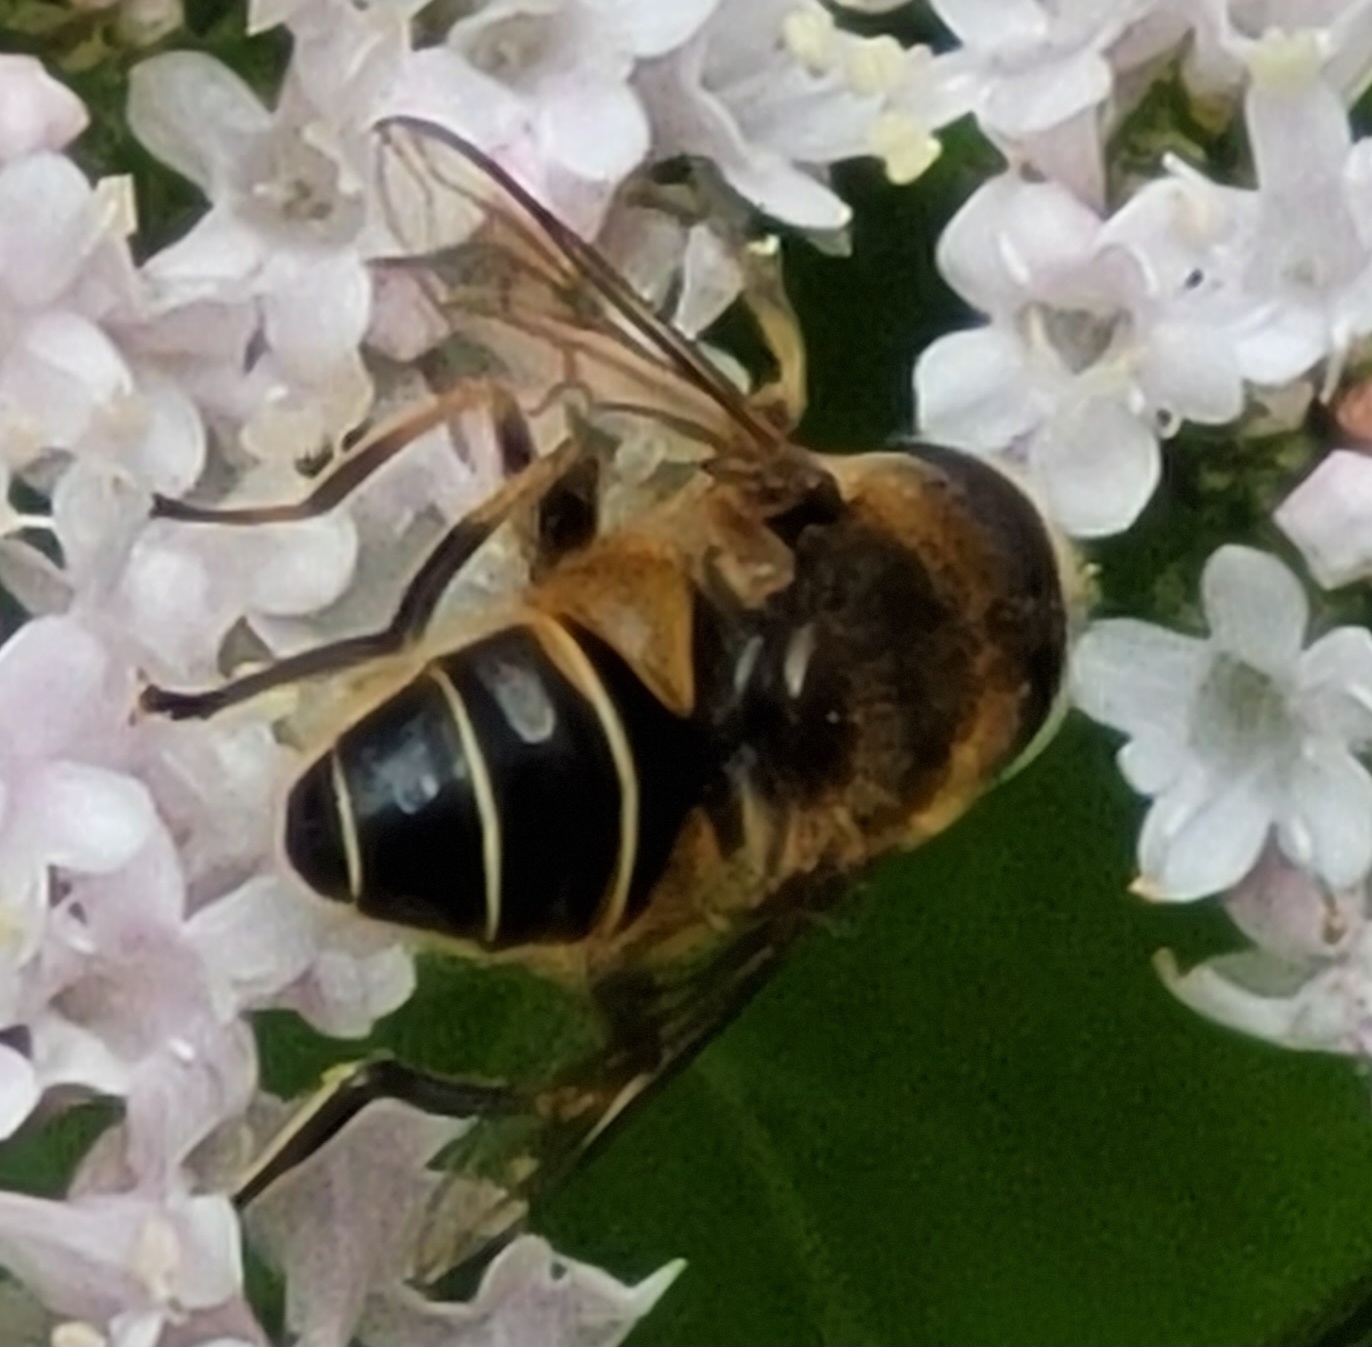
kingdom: Animalia
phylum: Arthropoda
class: Insecta
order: Diptera
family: Syrphidae
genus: Eristalis
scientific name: Eristalis nemorum
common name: Orange-spined drone fly
